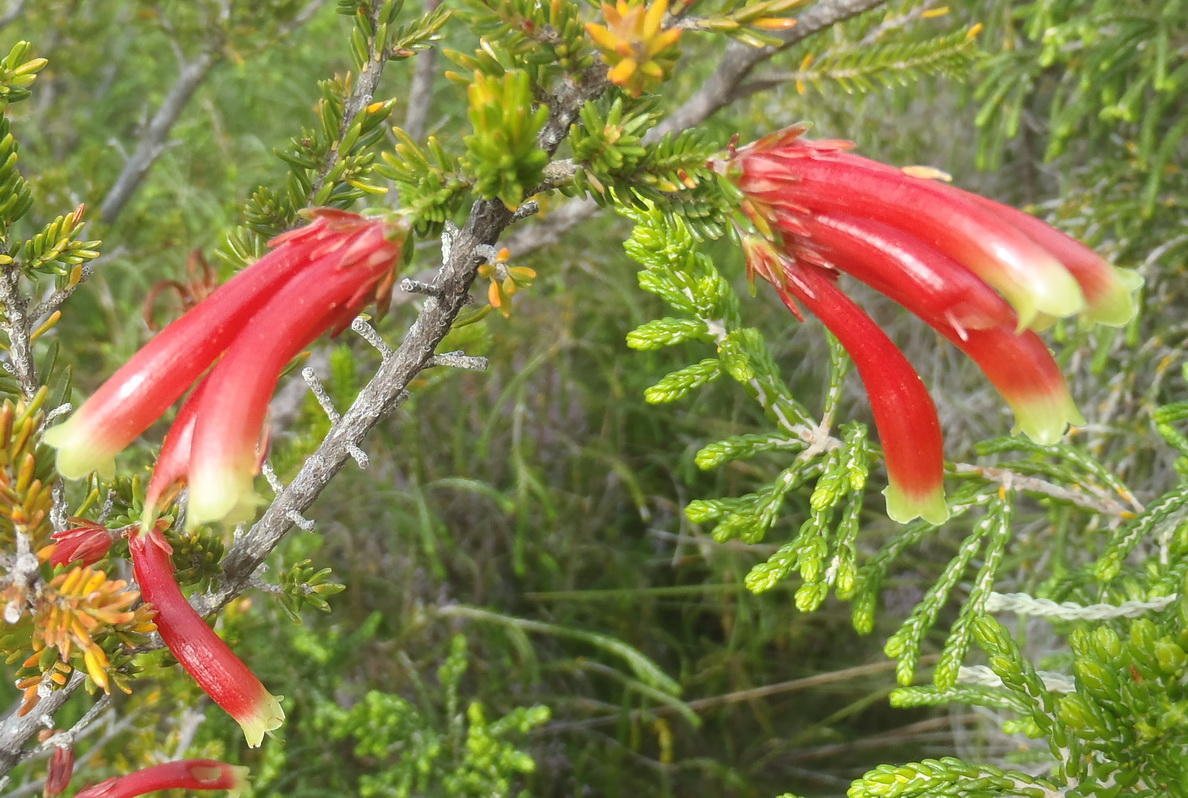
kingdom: Plantae
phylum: Tracheophyta
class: Magnoliopsida
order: Ericales
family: Ericaceae
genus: Erica
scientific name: Erica discolor
